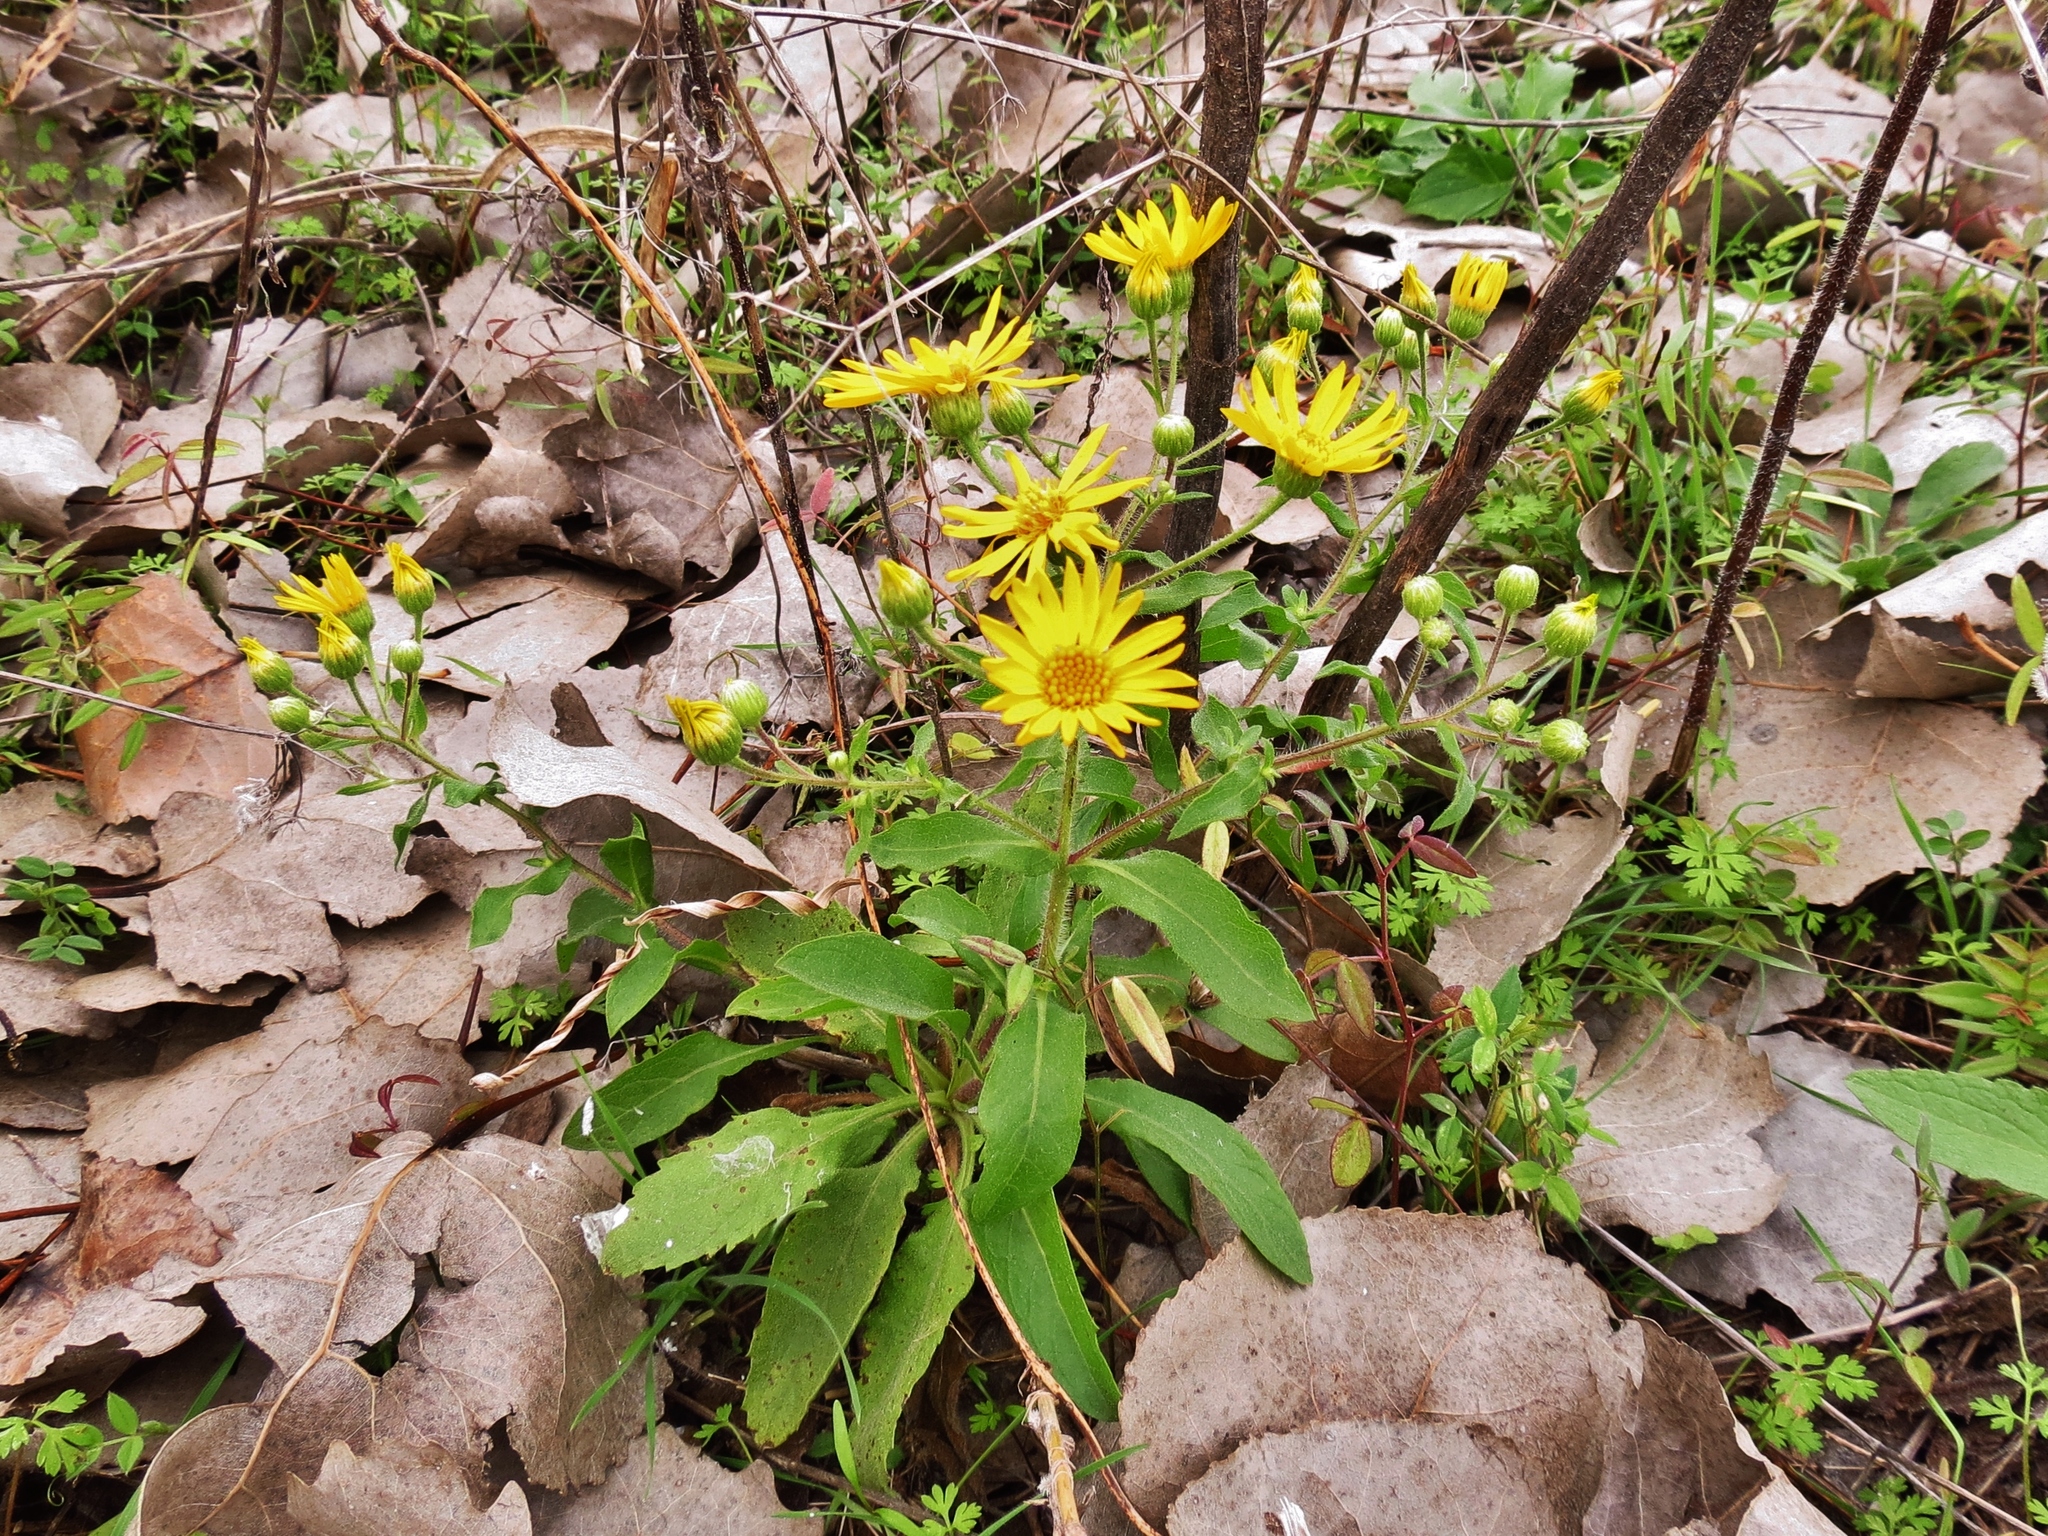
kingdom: Plantae
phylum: Tracheophyta
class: Magnoliopsida
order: Asterales
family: Asteraceae
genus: Heterotheca
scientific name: Heterotheca subaxillaris
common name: Camphorweed
